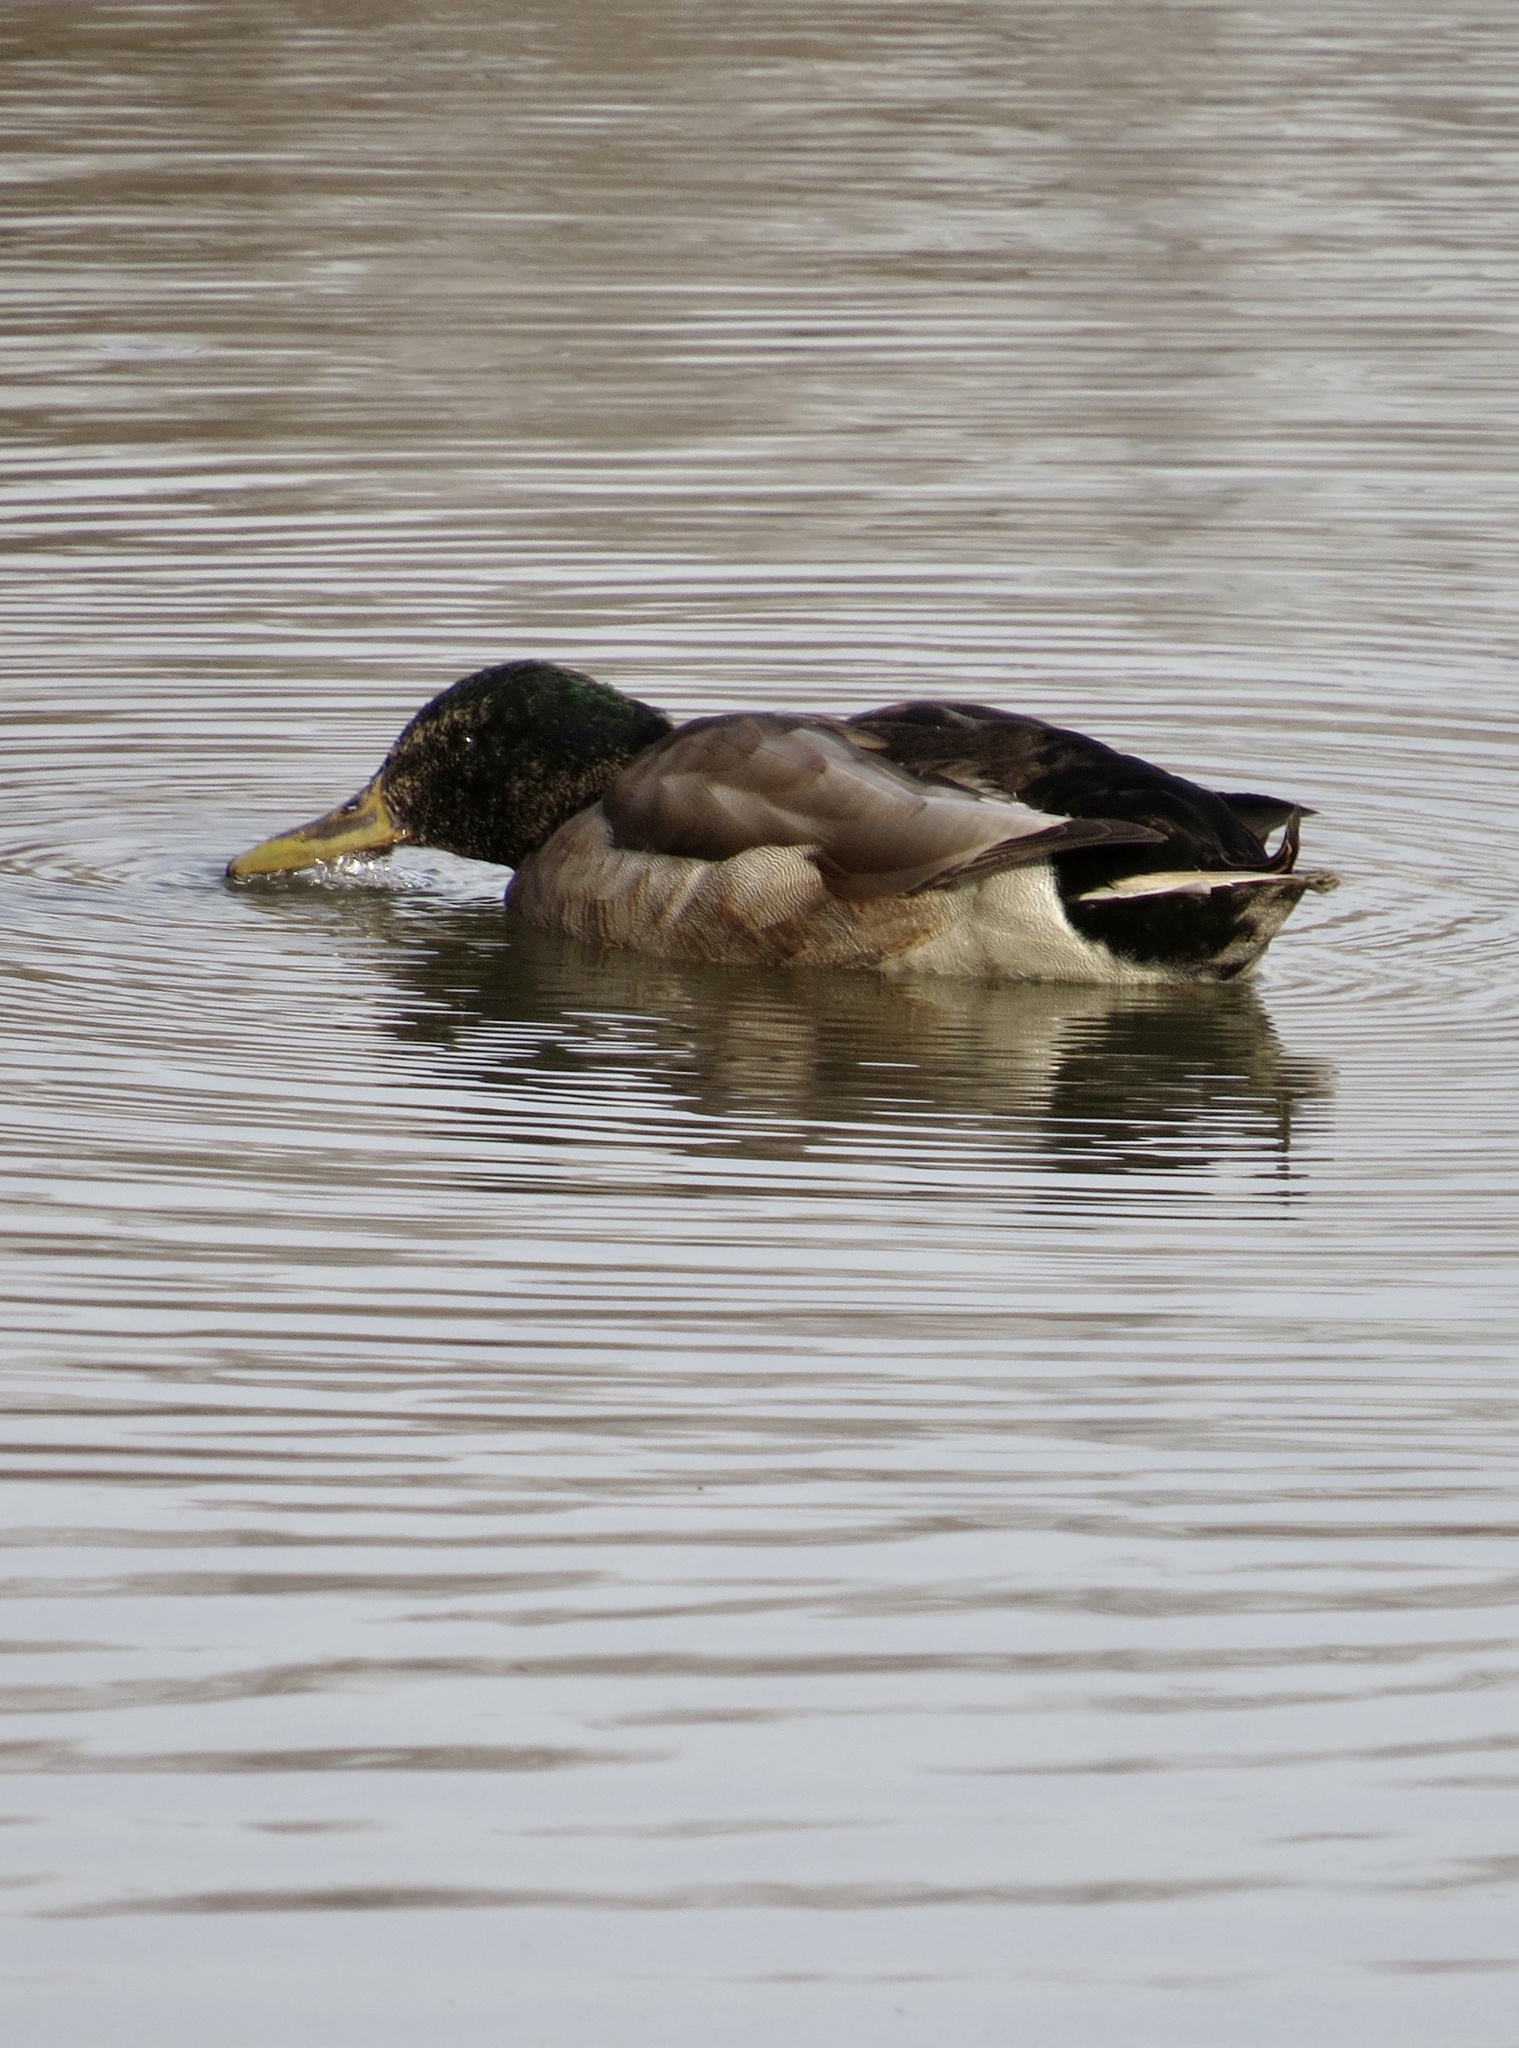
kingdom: Animalia
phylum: Chordata
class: Aves
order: Anseriformes
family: Anatidae
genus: Anas
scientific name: Anas platyrhynchos
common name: Mallard
